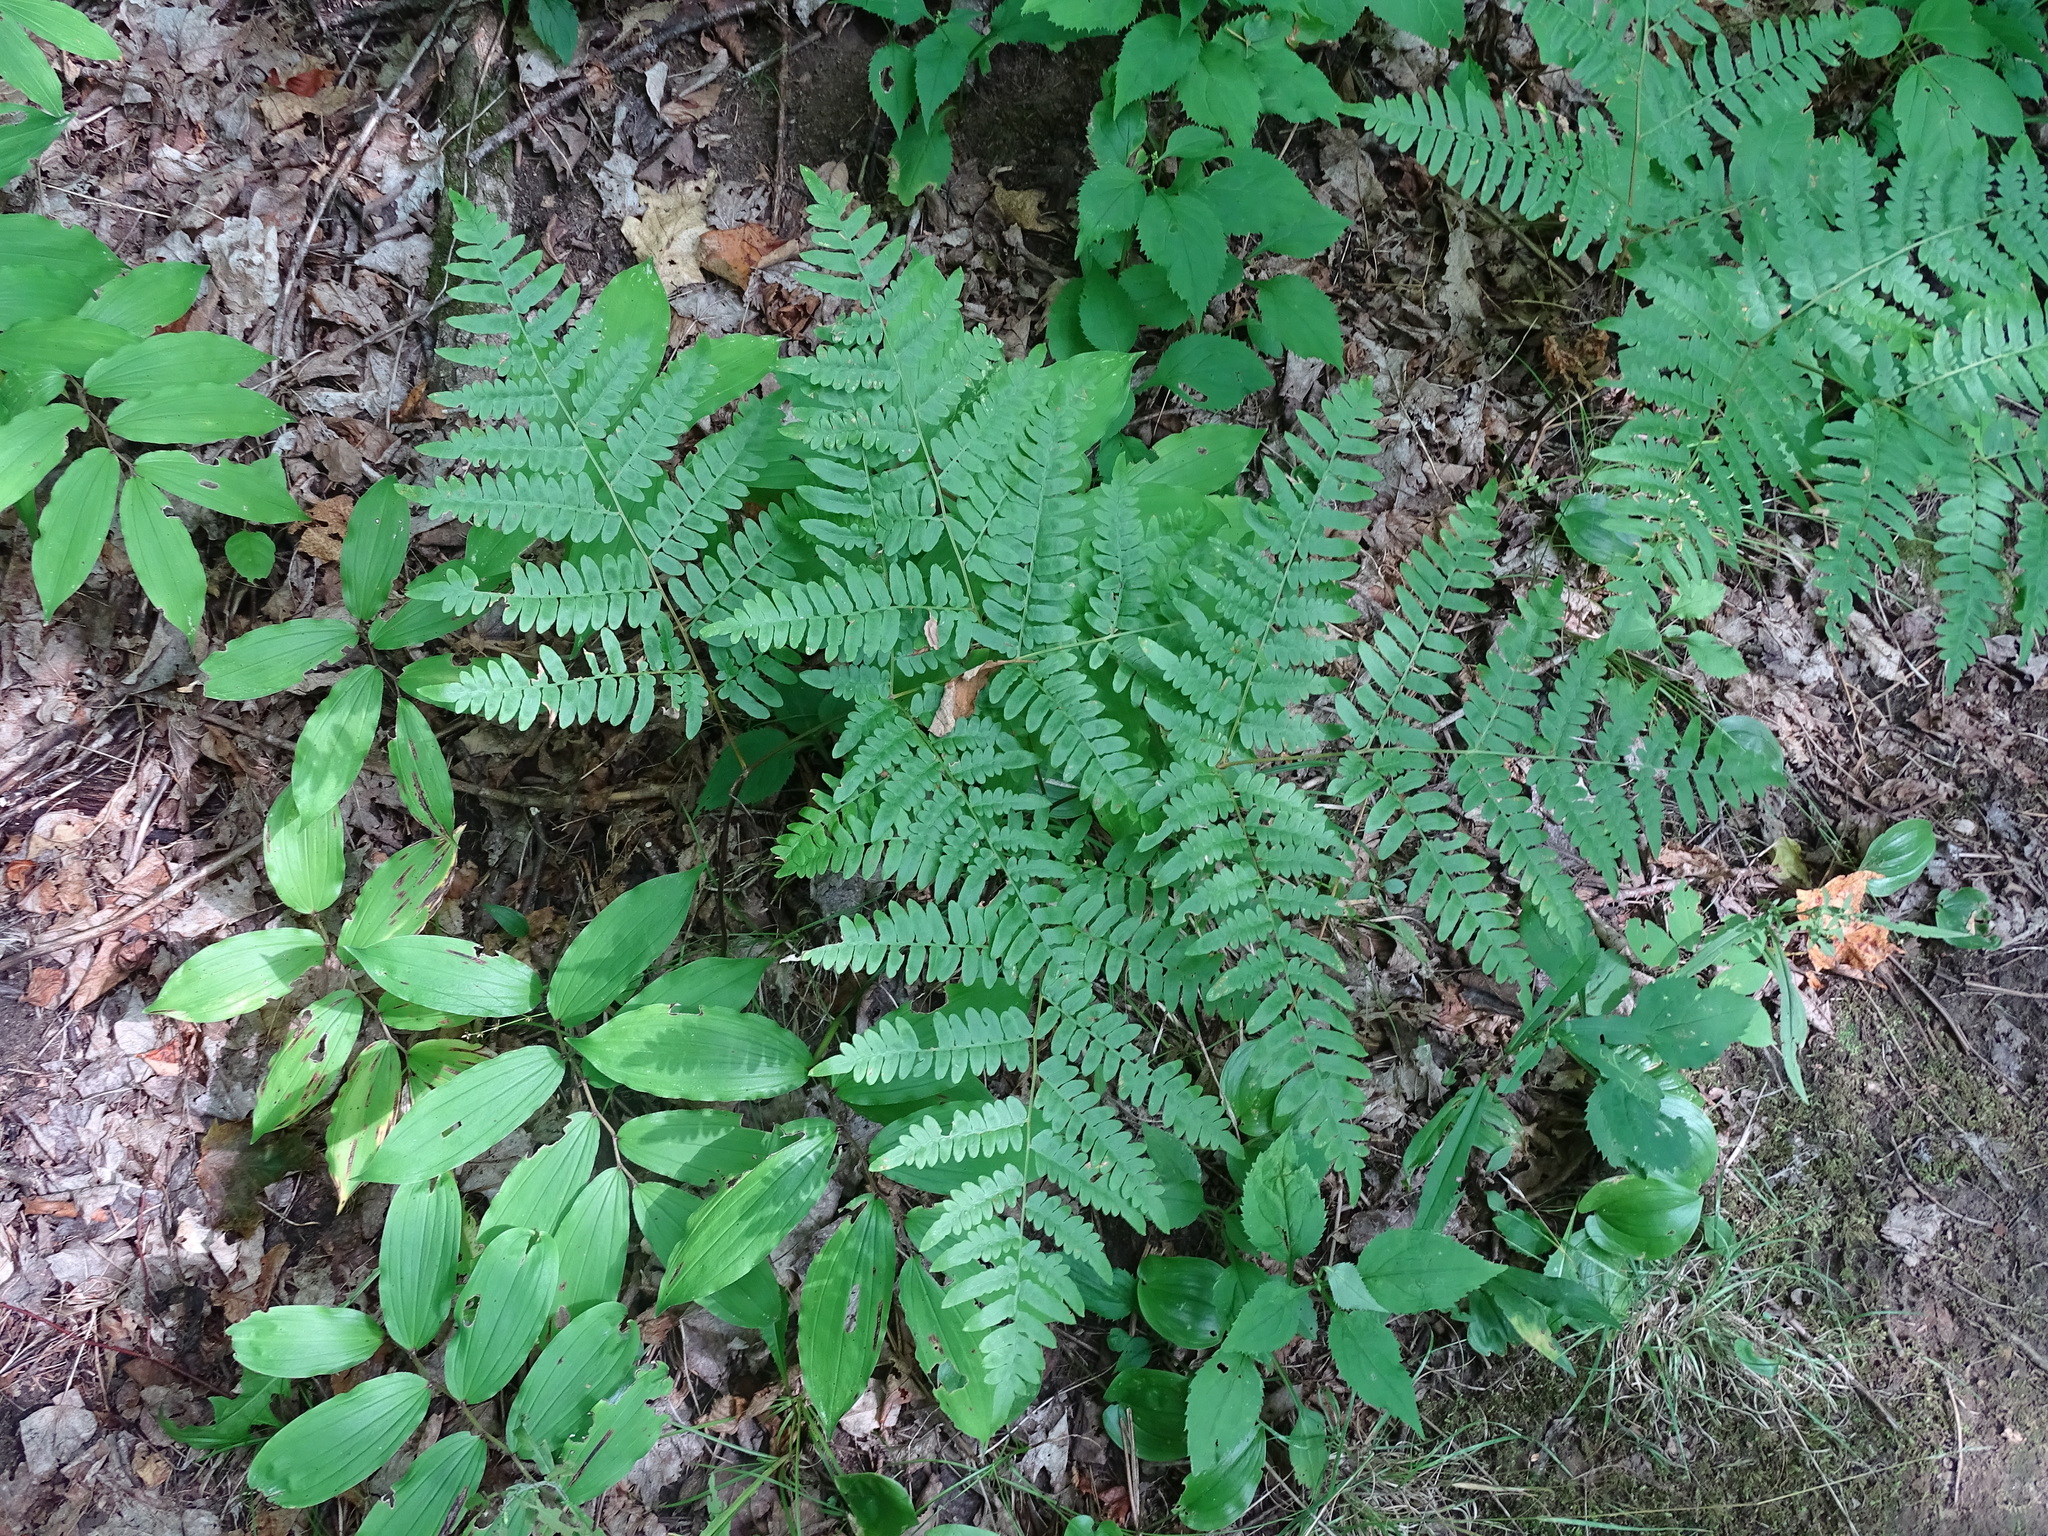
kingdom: Plantae
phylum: Tracheophyta
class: Polypodiopsida
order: Polypodiales
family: Dennstaedtiaceae
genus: Pteridium
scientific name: Pteridium aquilinum
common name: Bracken
